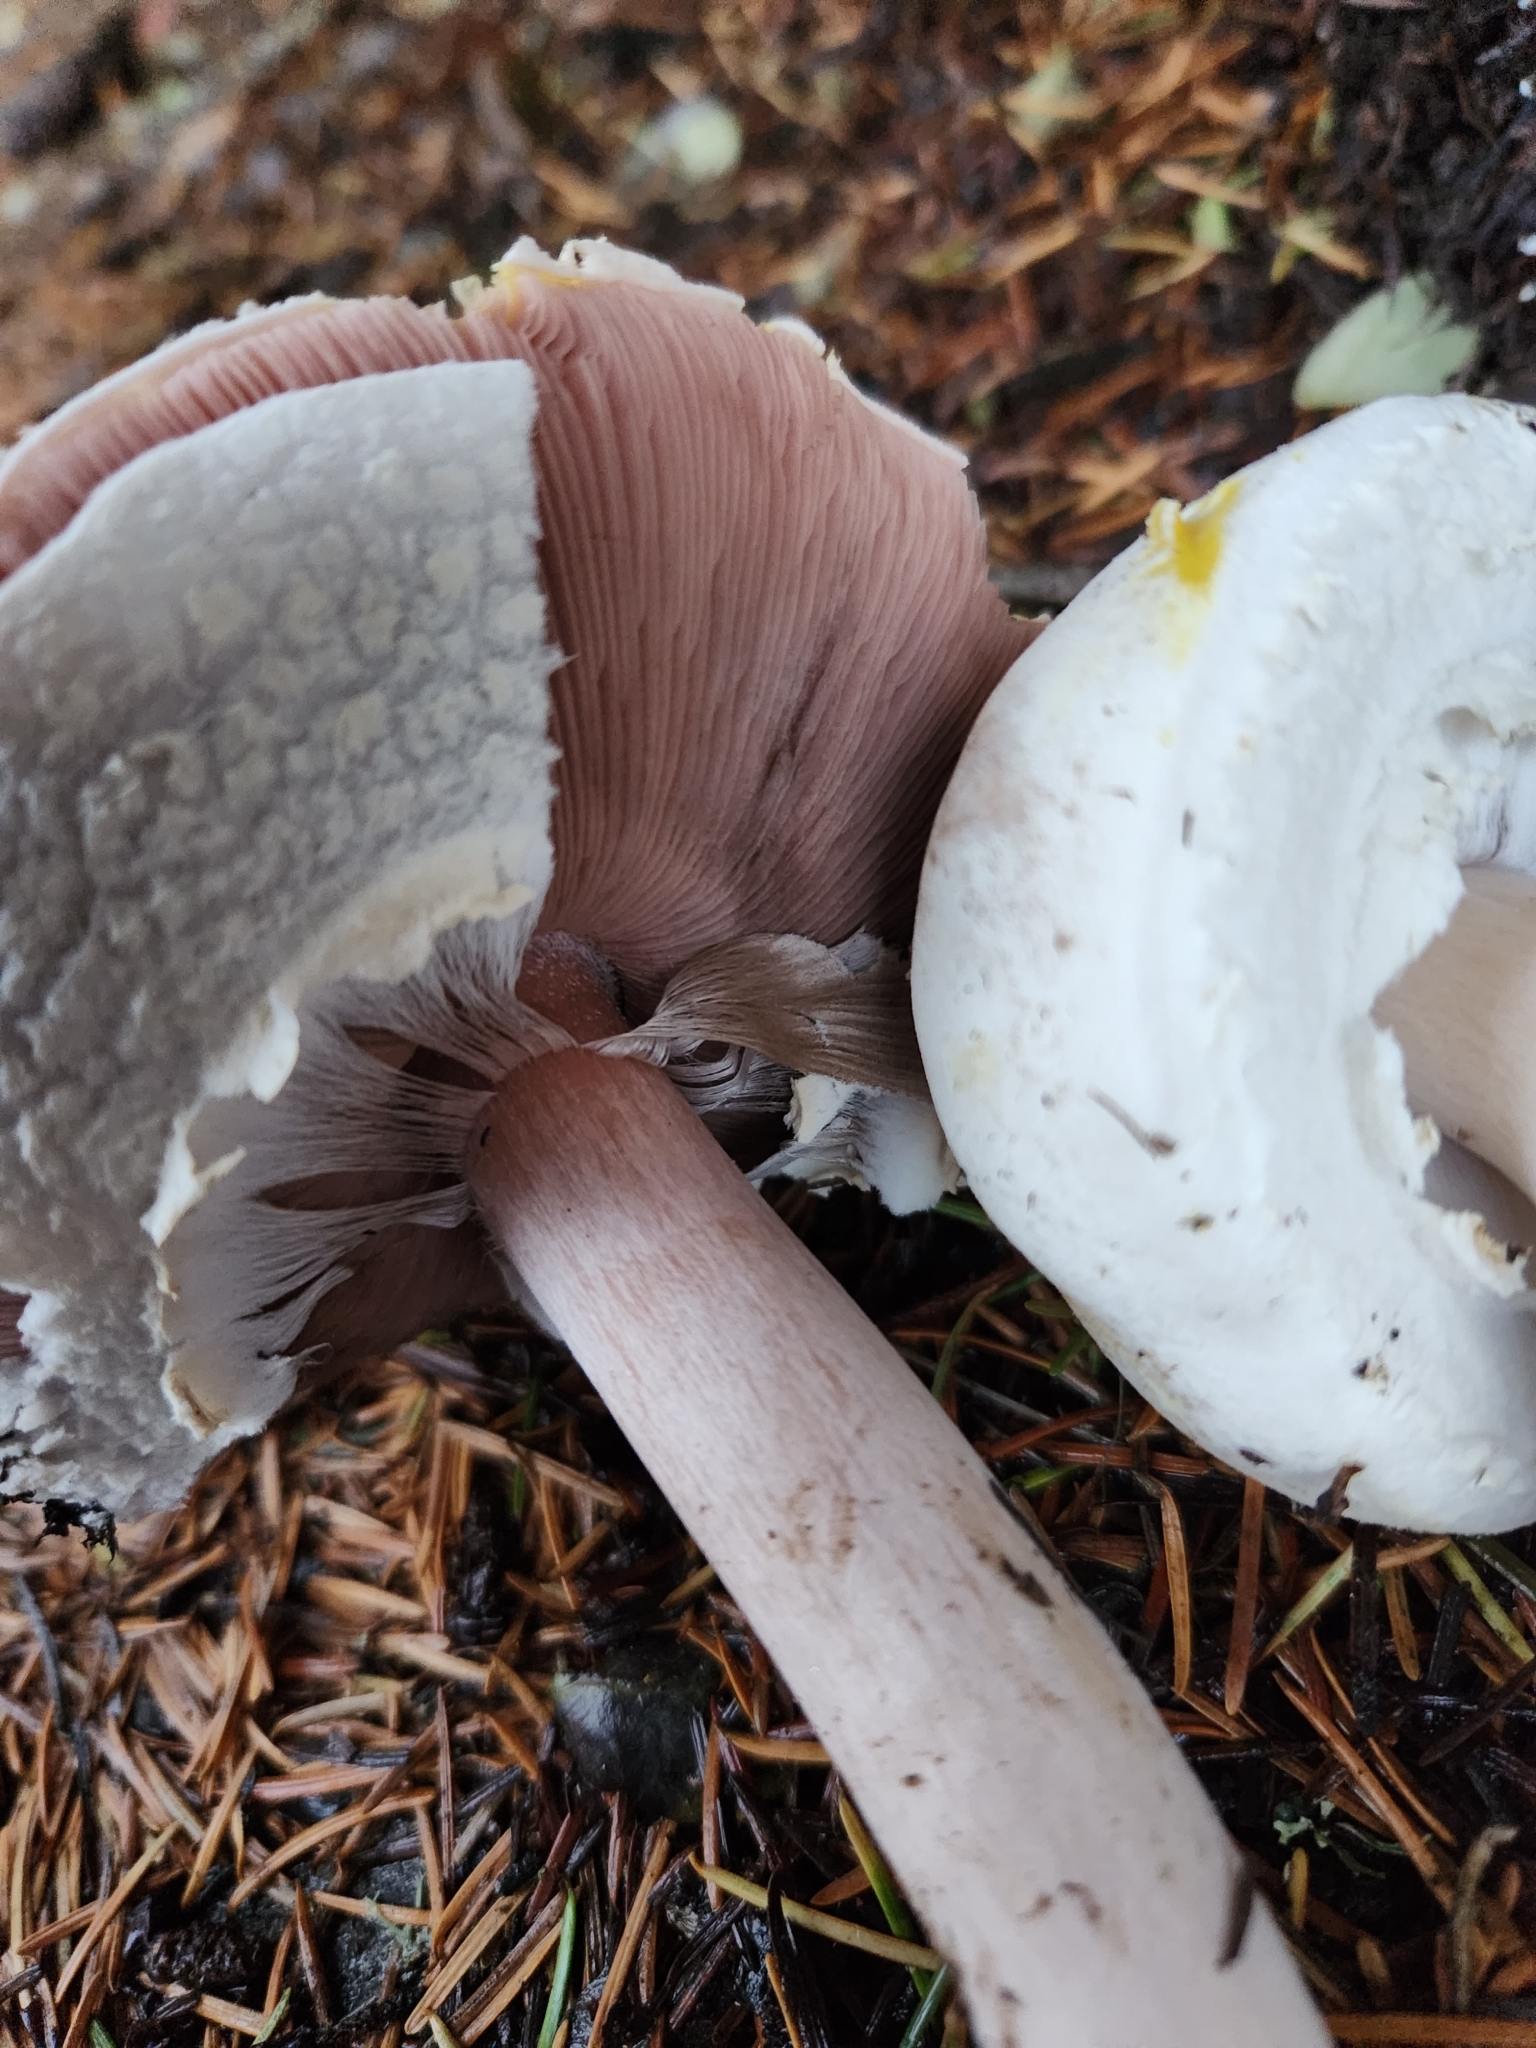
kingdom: Fungi
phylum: Basidiomycota
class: Agaricomycetes
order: Agaricales
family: Agaricaceae
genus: Agaricus
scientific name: Agaricus xanthodermus
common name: Yellow stainer
